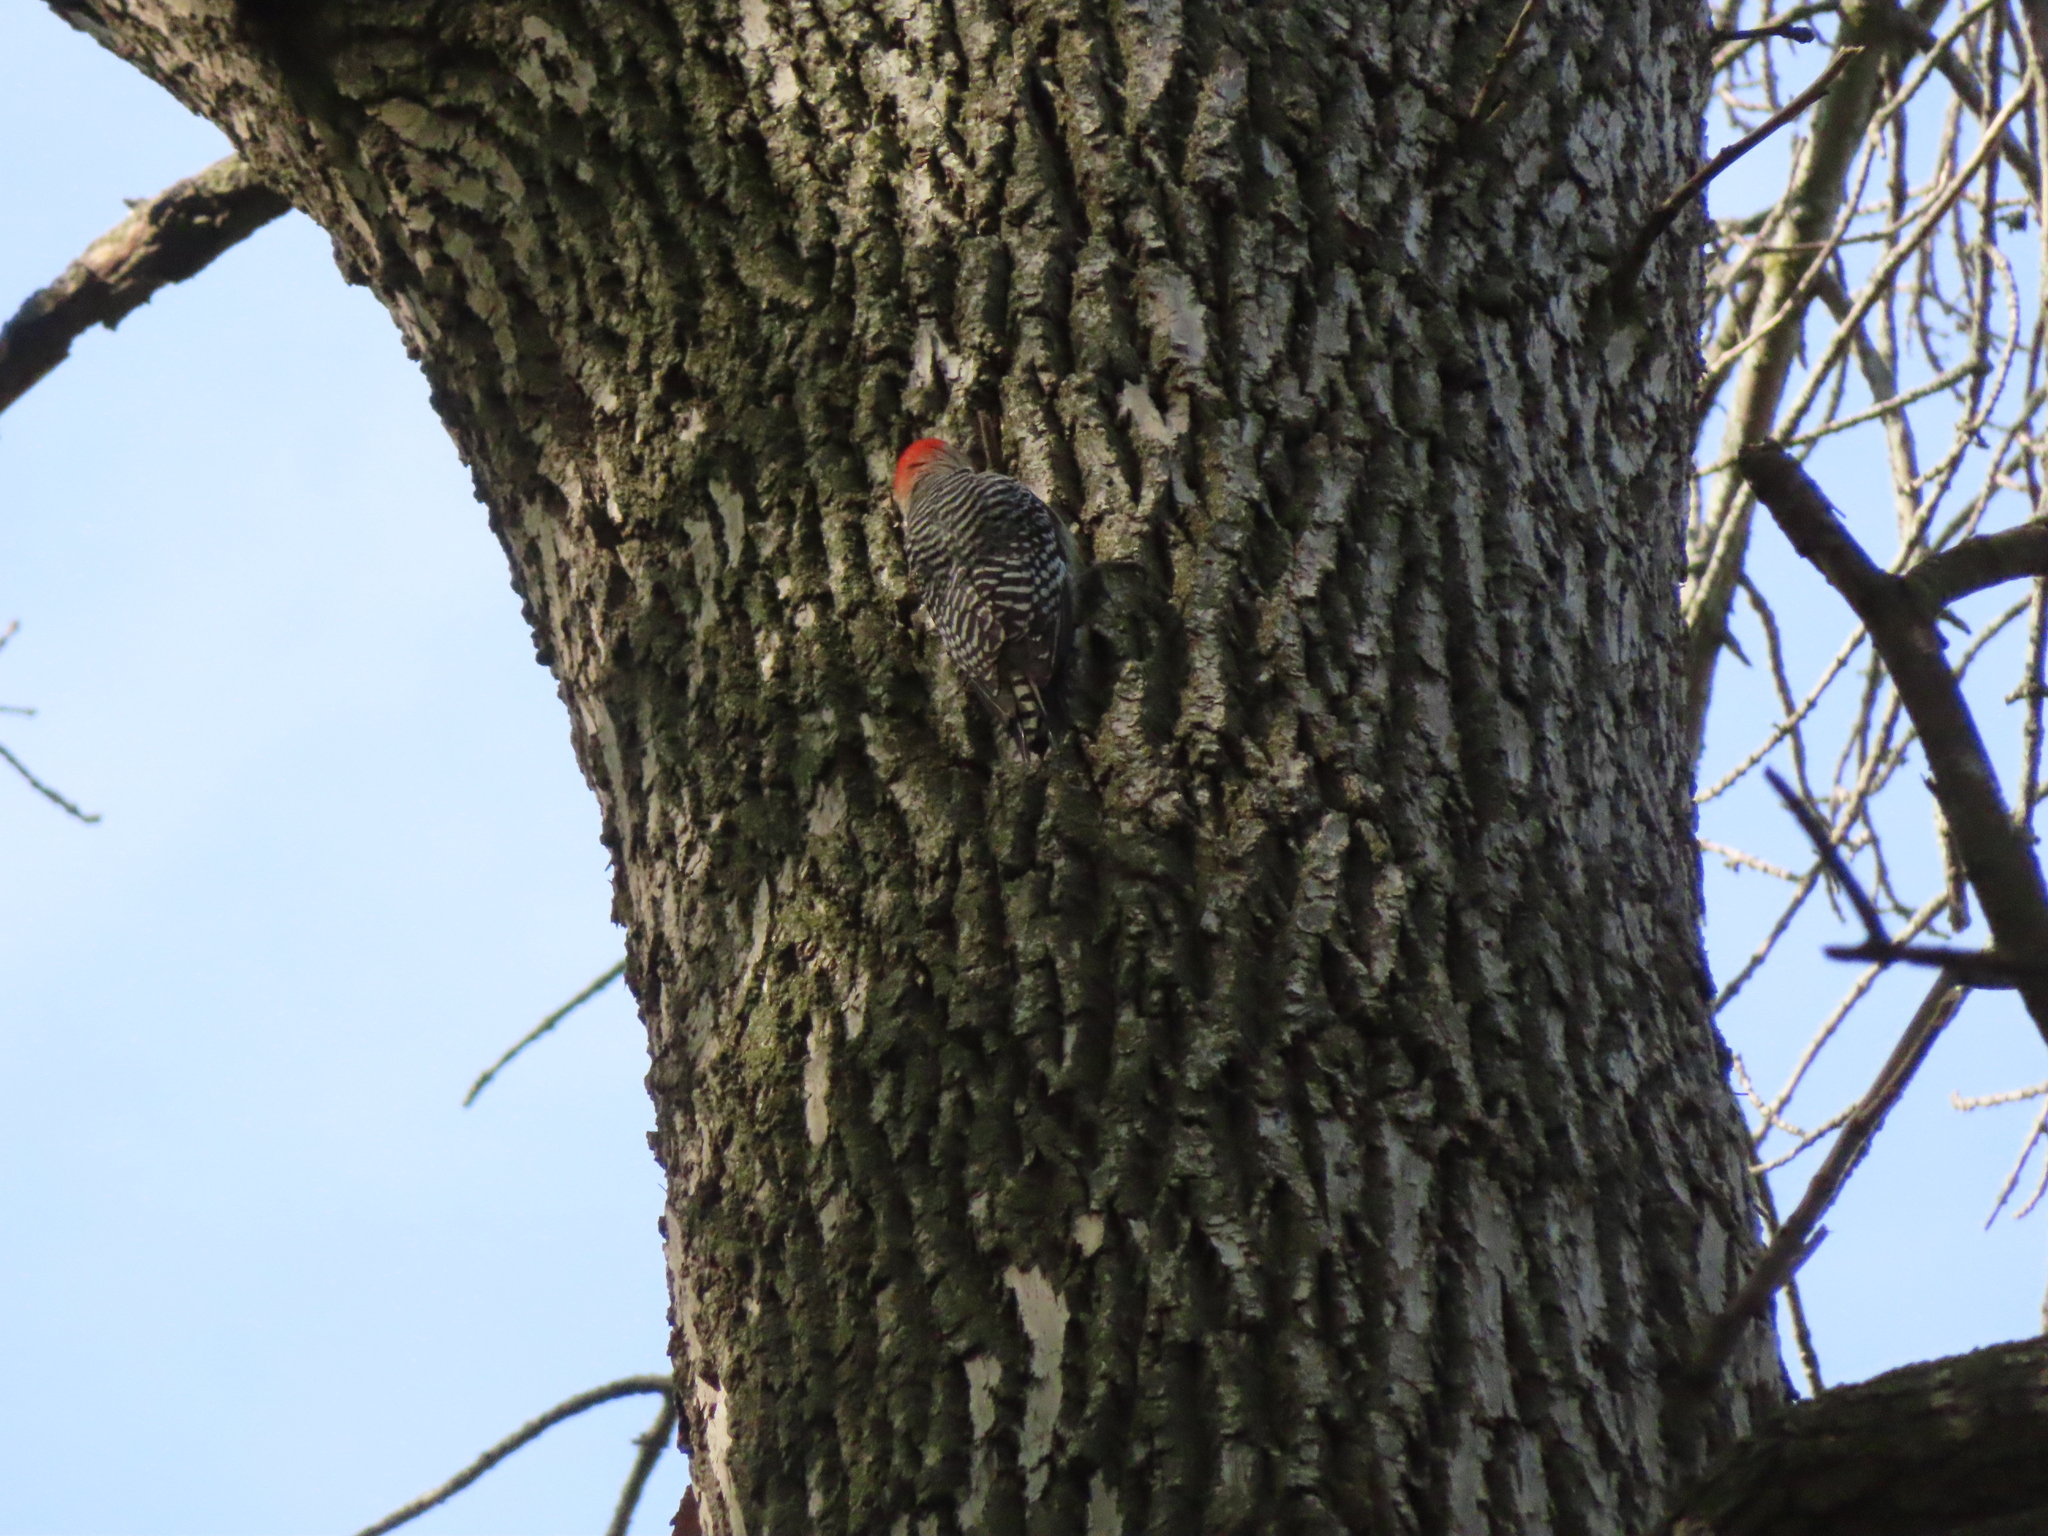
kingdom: Animalia
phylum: Chordata
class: Aves
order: Piciformes
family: Picidae
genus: Melanerpes
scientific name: Melanerpes carolinus
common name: Red-bellied woodpecker
